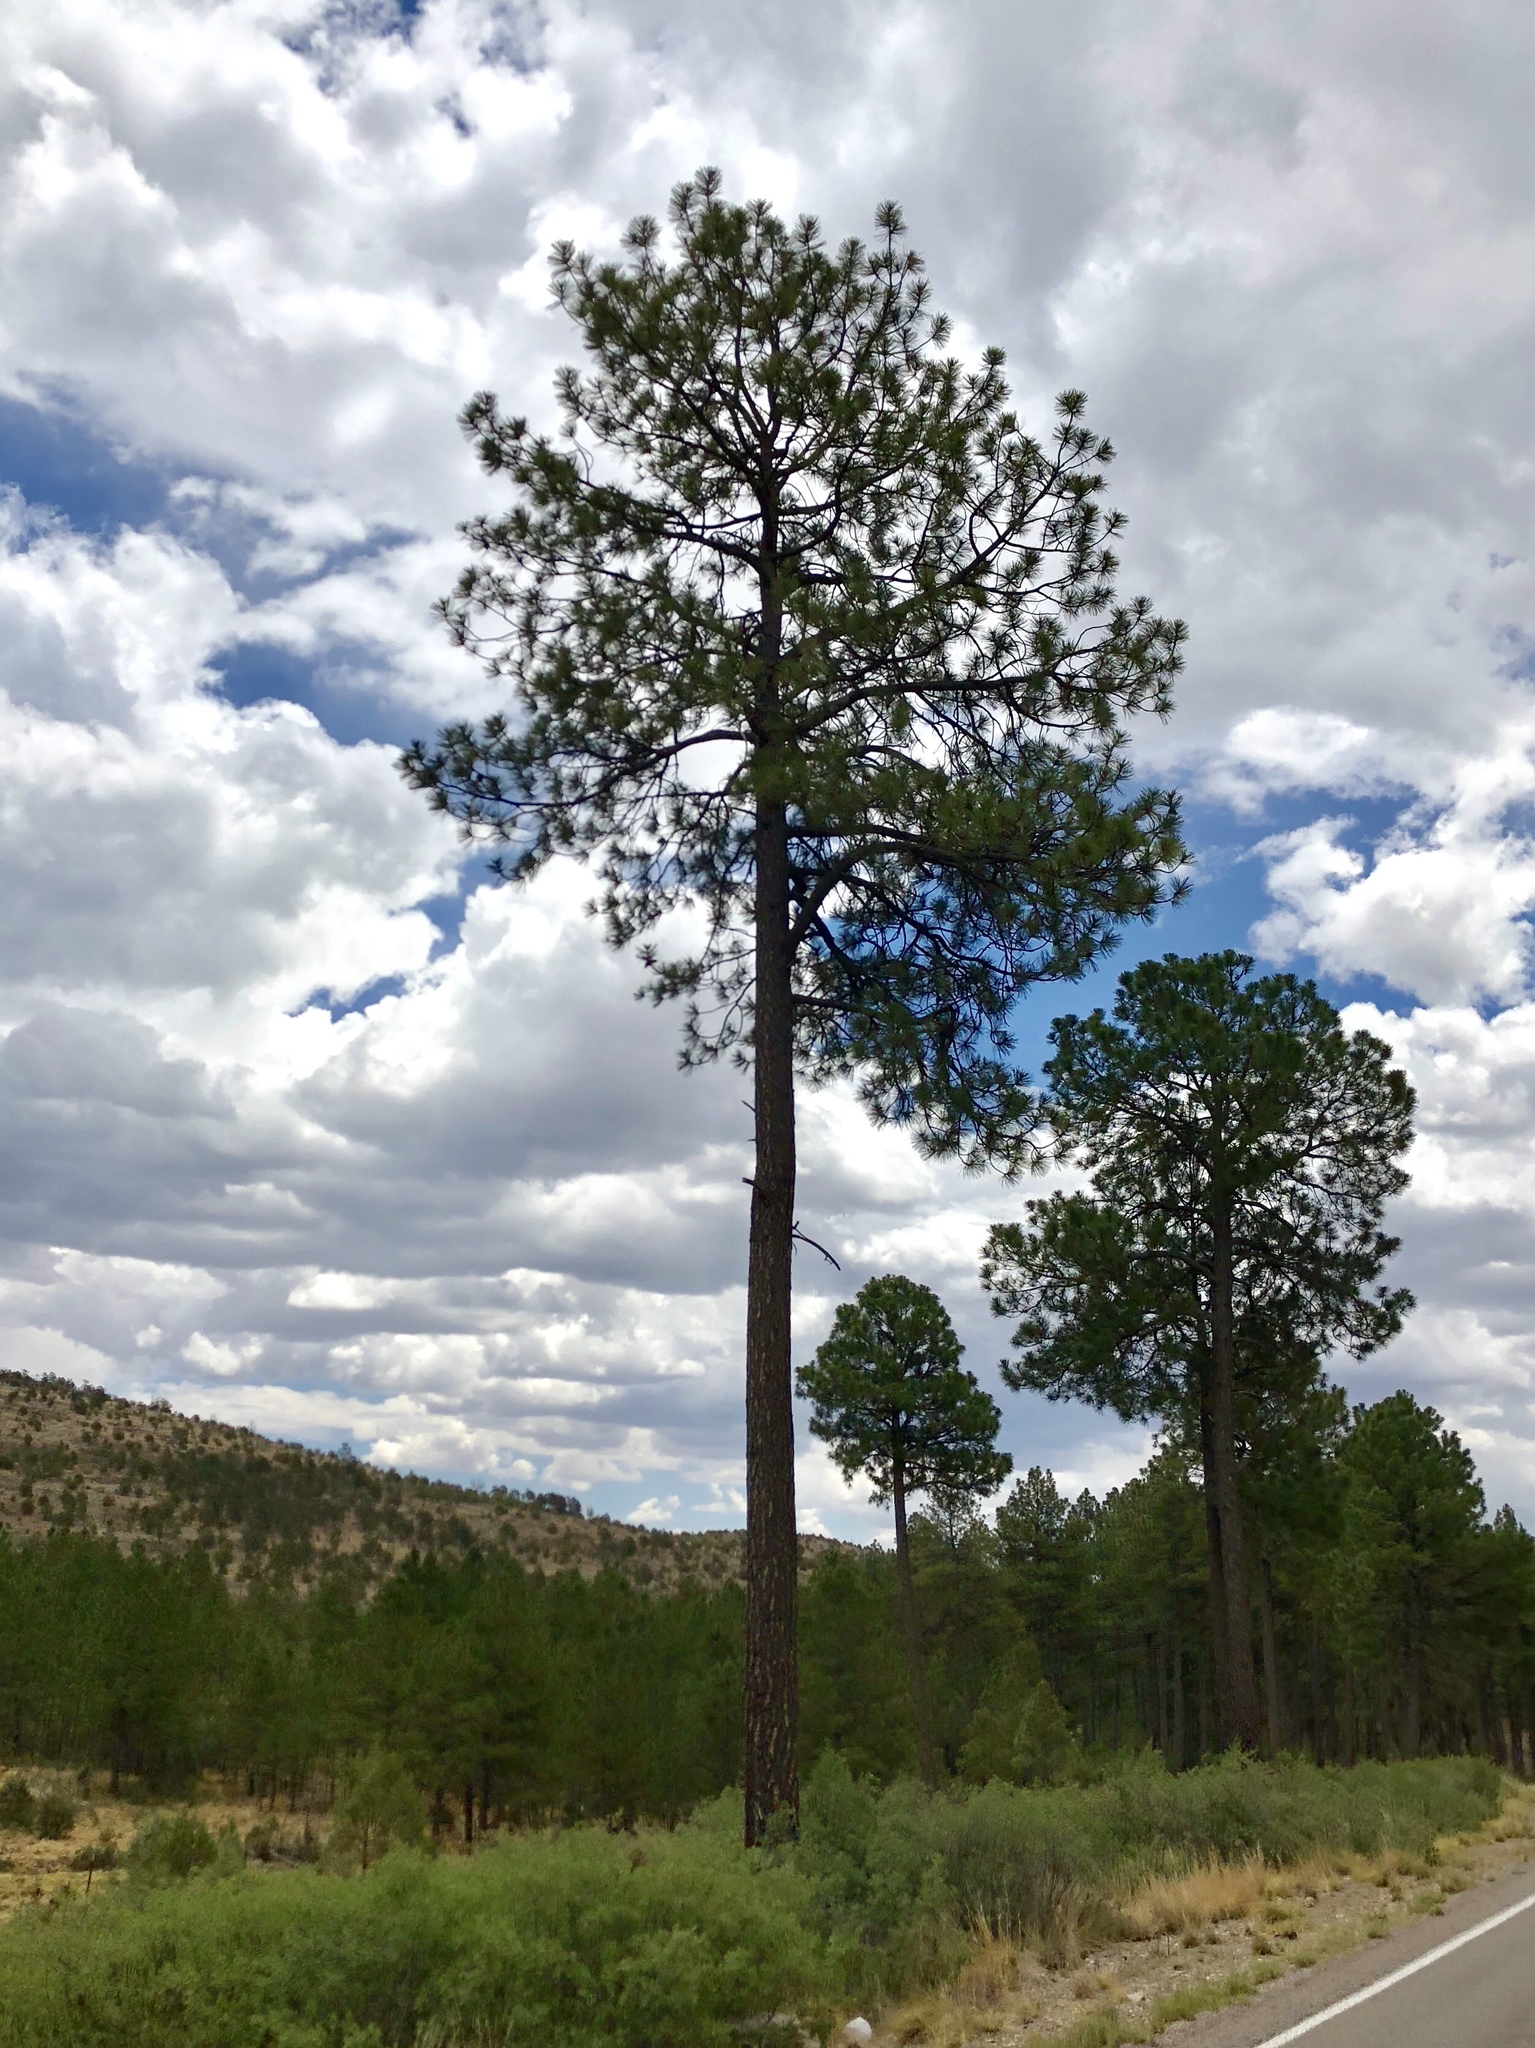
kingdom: Plantae
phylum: Tracheophyta
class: Pinopsida
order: Pinales
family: Pinaceae
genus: Pinus
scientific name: Pinus ponderosa
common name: Western yellow-pine
